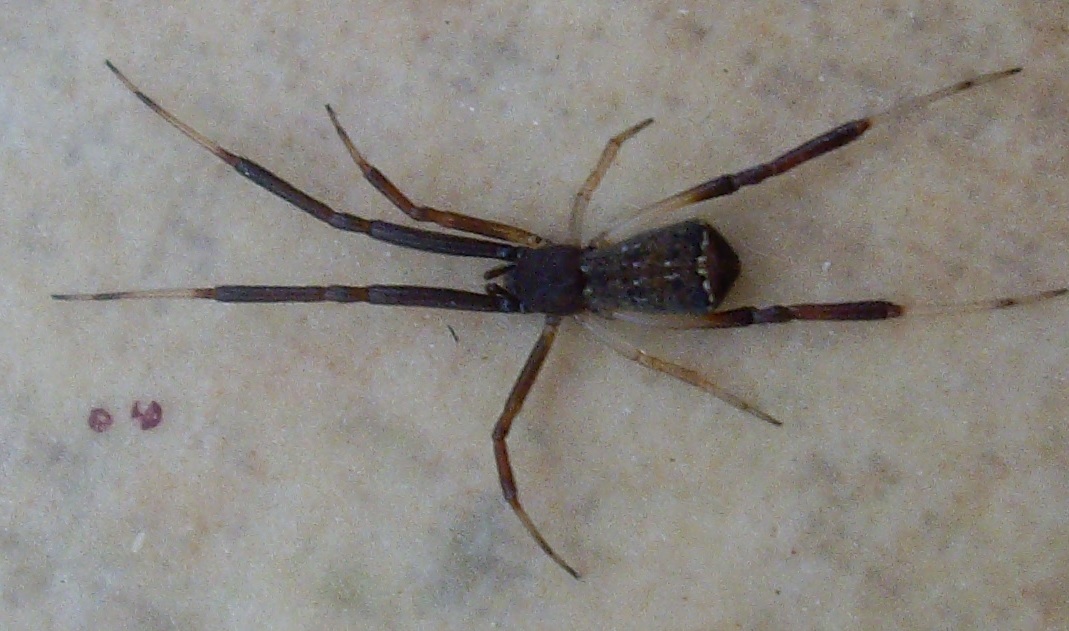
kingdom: Animalia
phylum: Arthropoda
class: Arachnida
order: Araneae
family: Theridiidae
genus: Episinus
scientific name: Episinus truncatus
